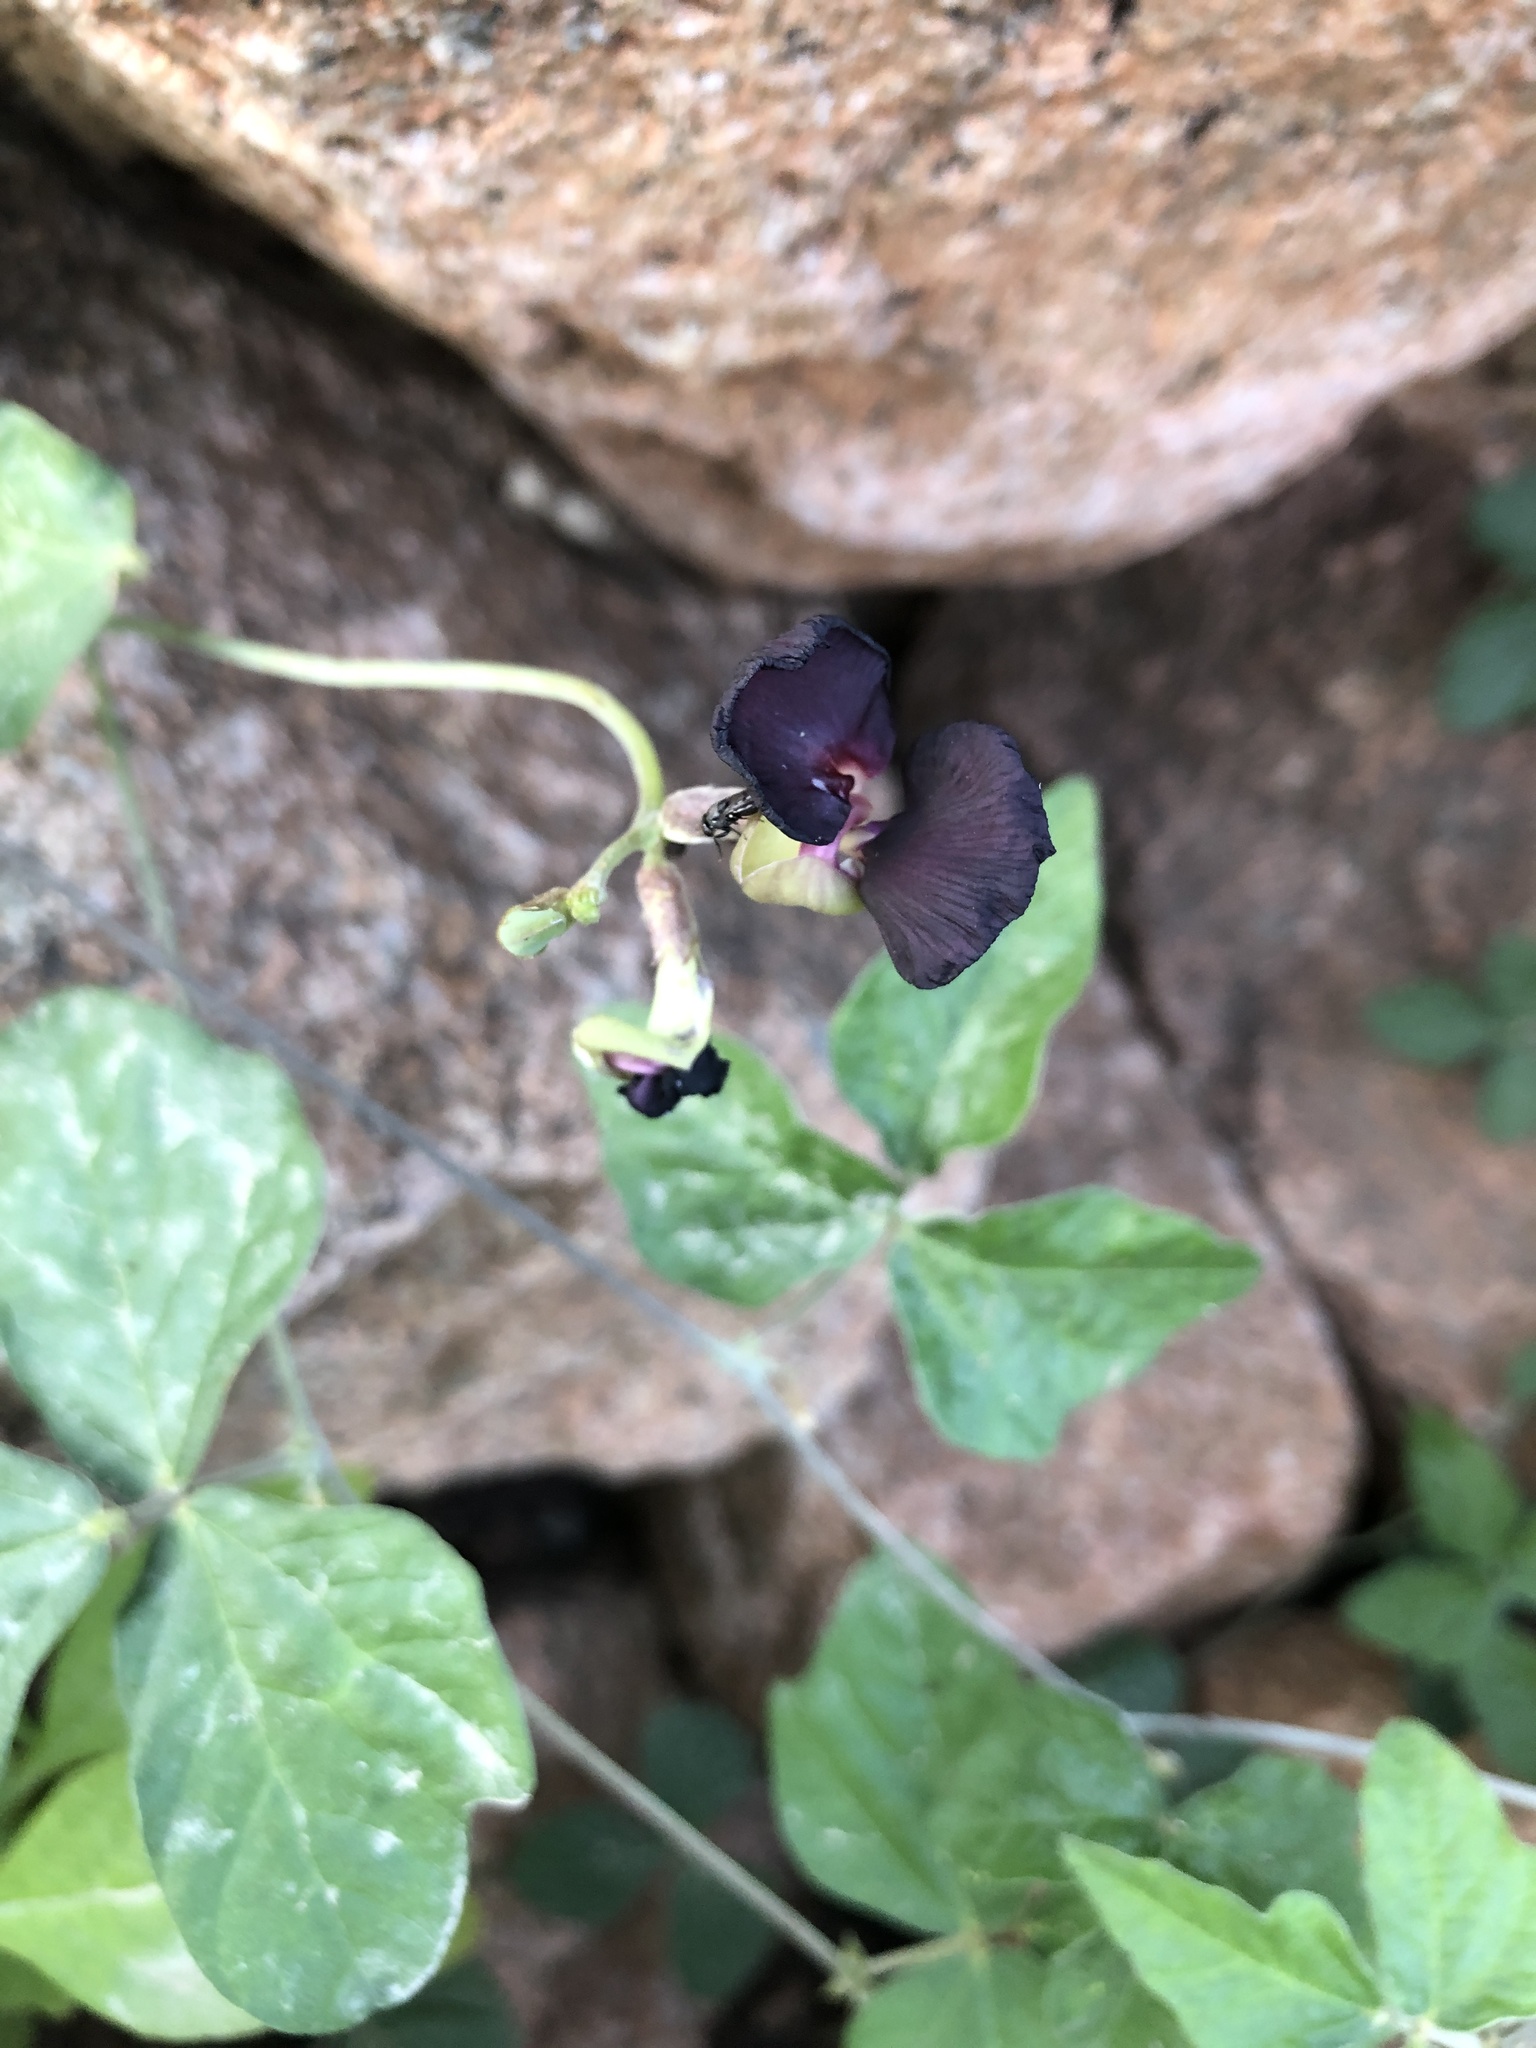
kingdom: Plantae
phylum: Tracheophyta
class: Magnoliopsida
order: Fabales
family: Fabaceae
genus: Macroptilium
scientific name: Macroptilium atropurpureum
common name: Purple bushbean
